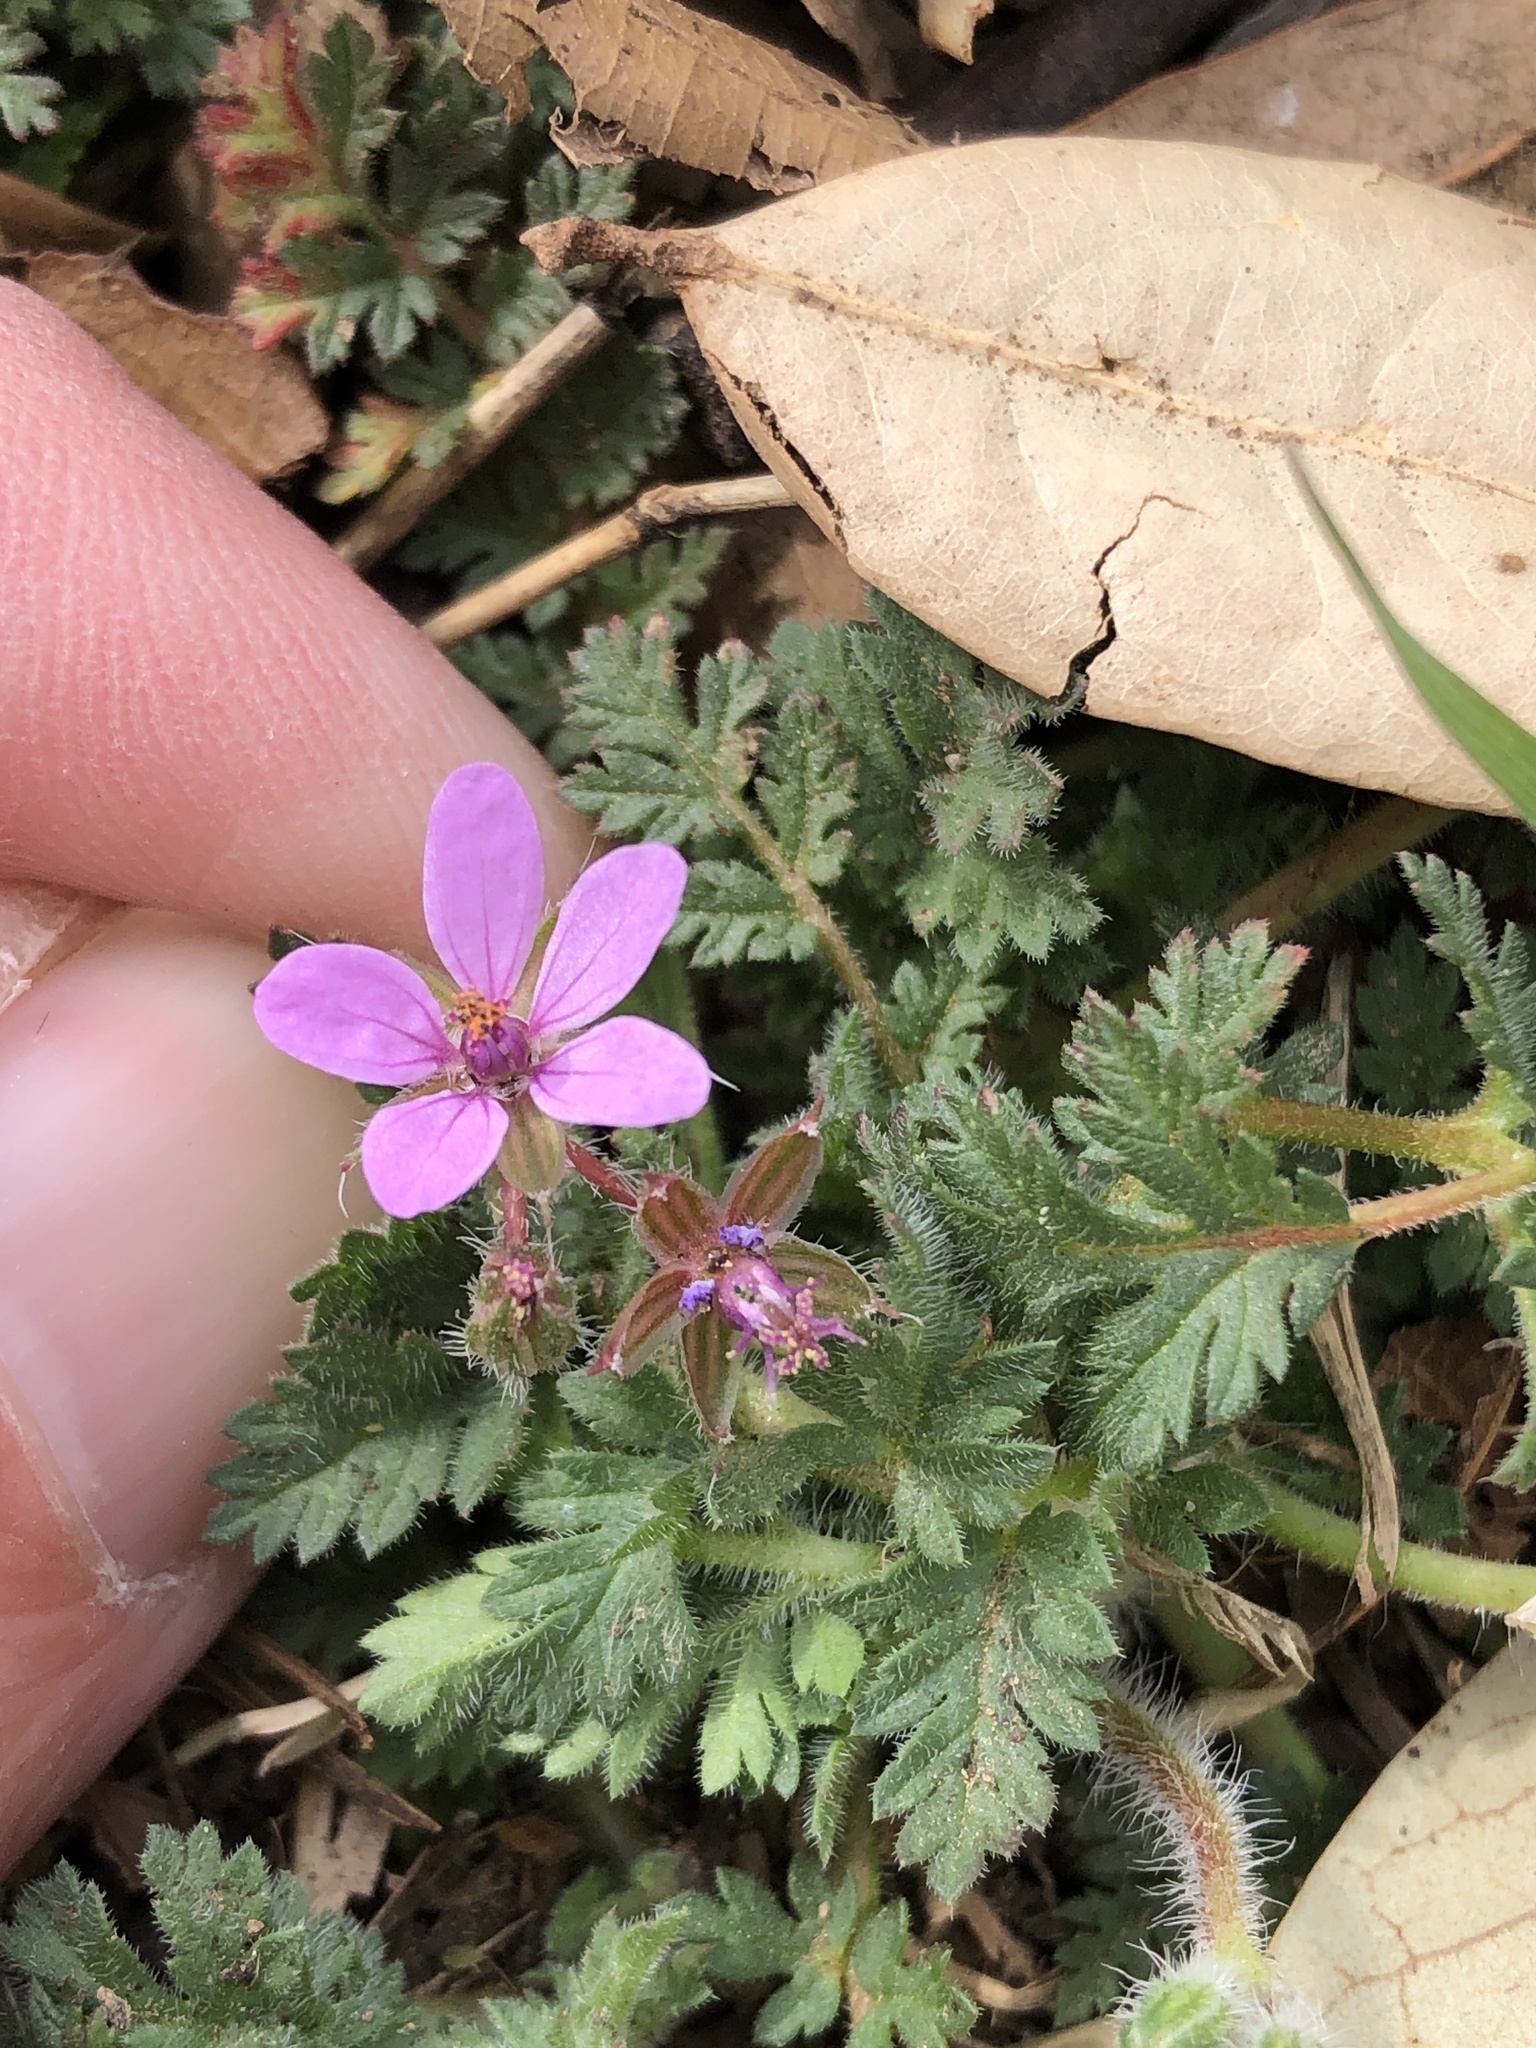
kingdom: Plantae
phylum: Tracheophyta
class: Magnoliopsida
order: Geraniales
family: Geraniaceae
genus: Erodium
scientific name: Erodium cicutarium
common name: Common stork's-bill
